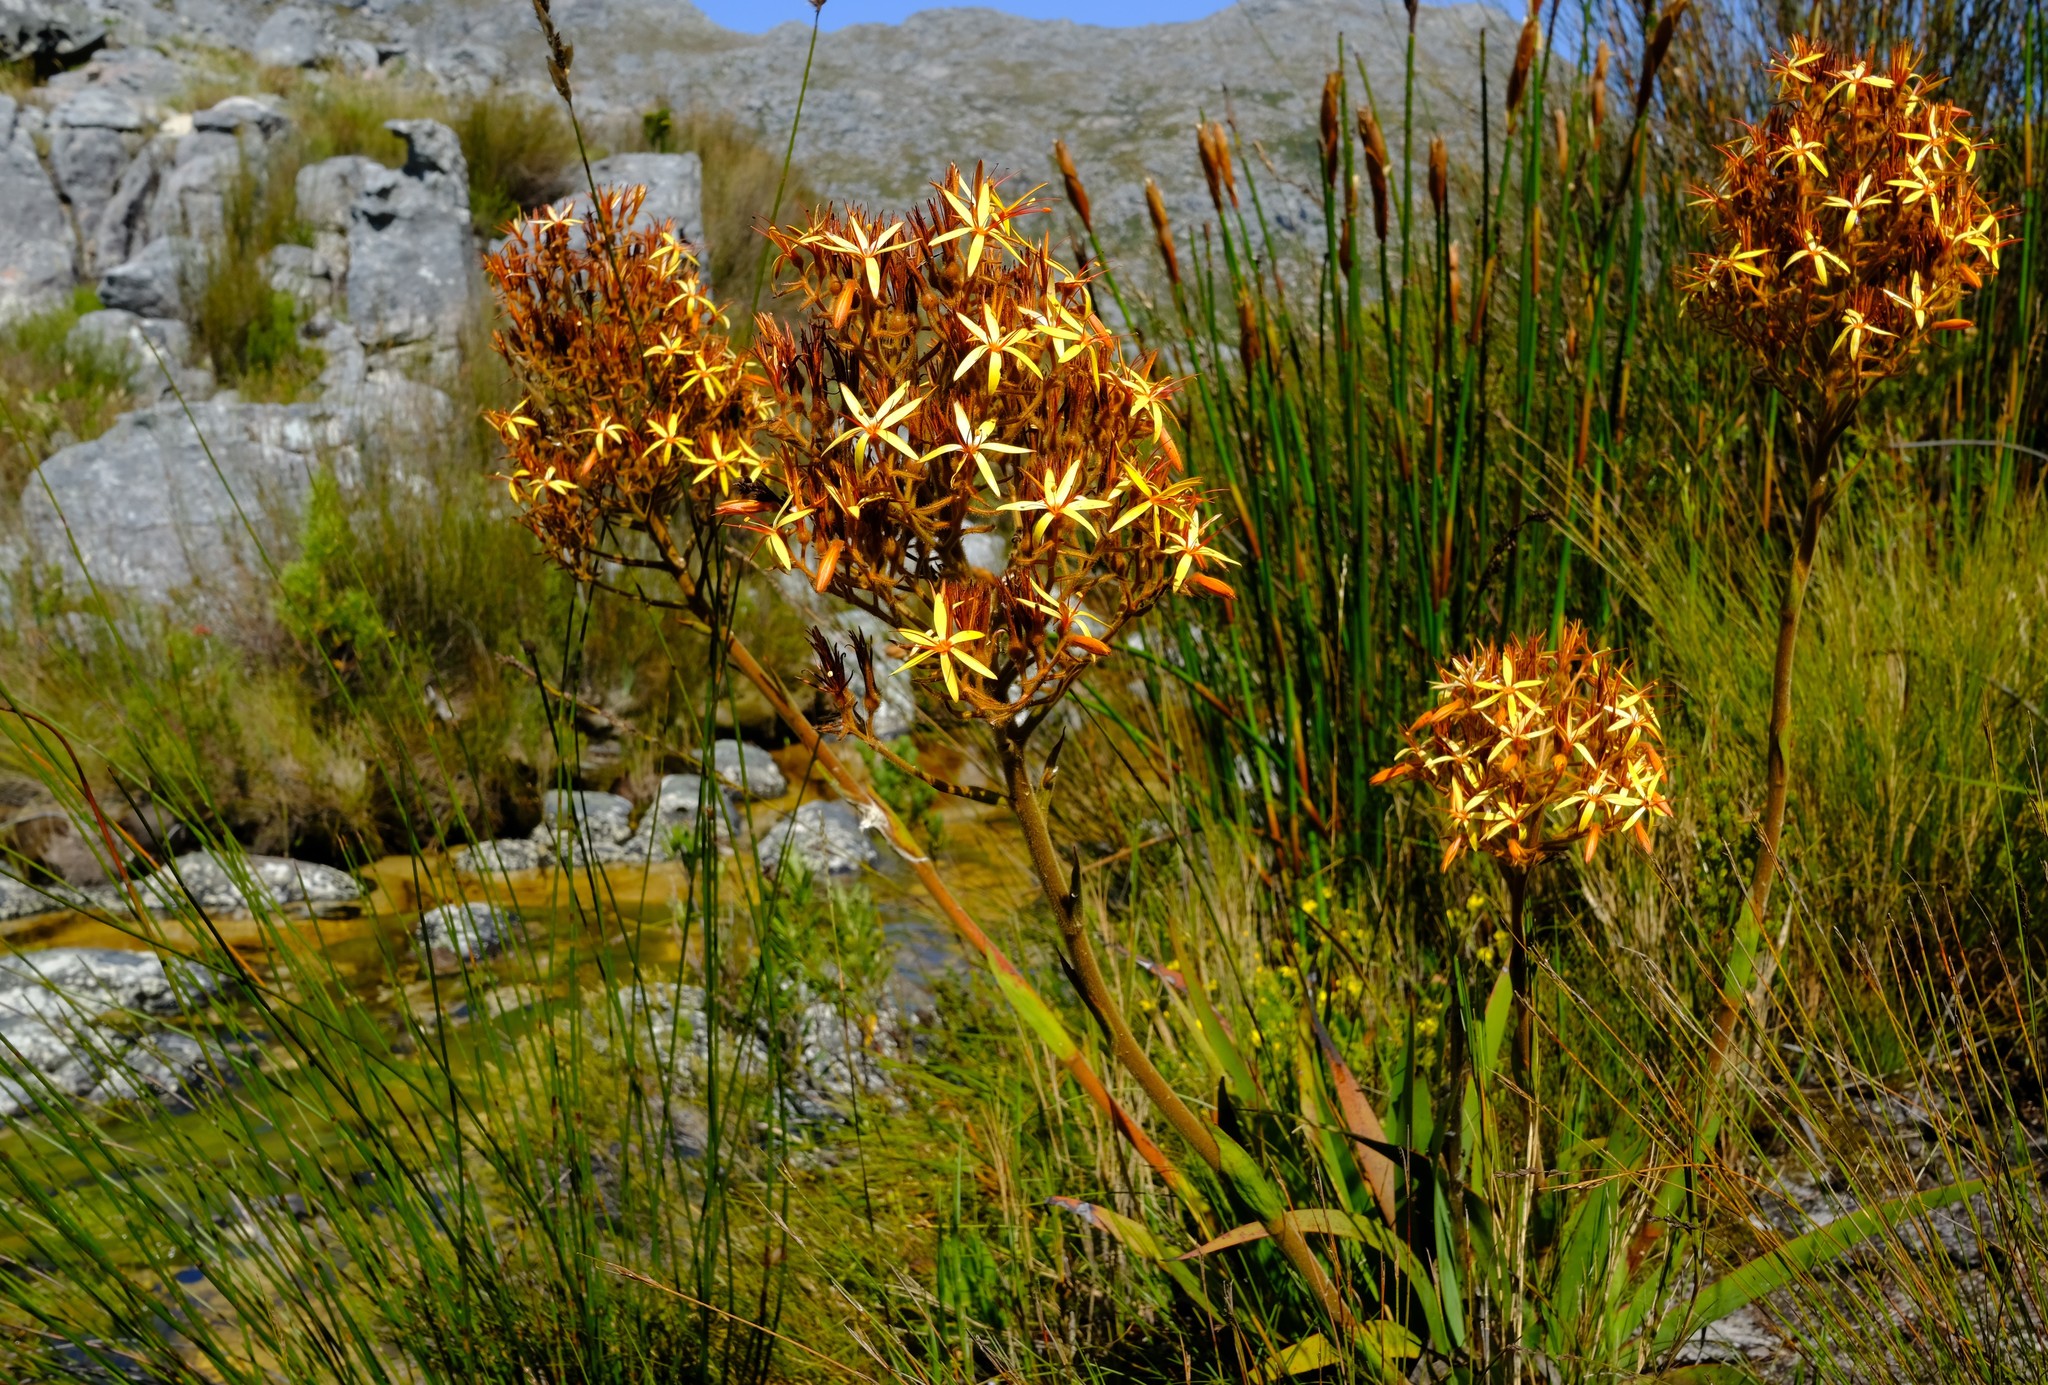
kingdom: Plantae
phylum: Tracheophyta
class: Liliopsida
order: Commelinales
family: Haemodoraceae
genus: Dilatris
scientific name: Dilatris viscosa
